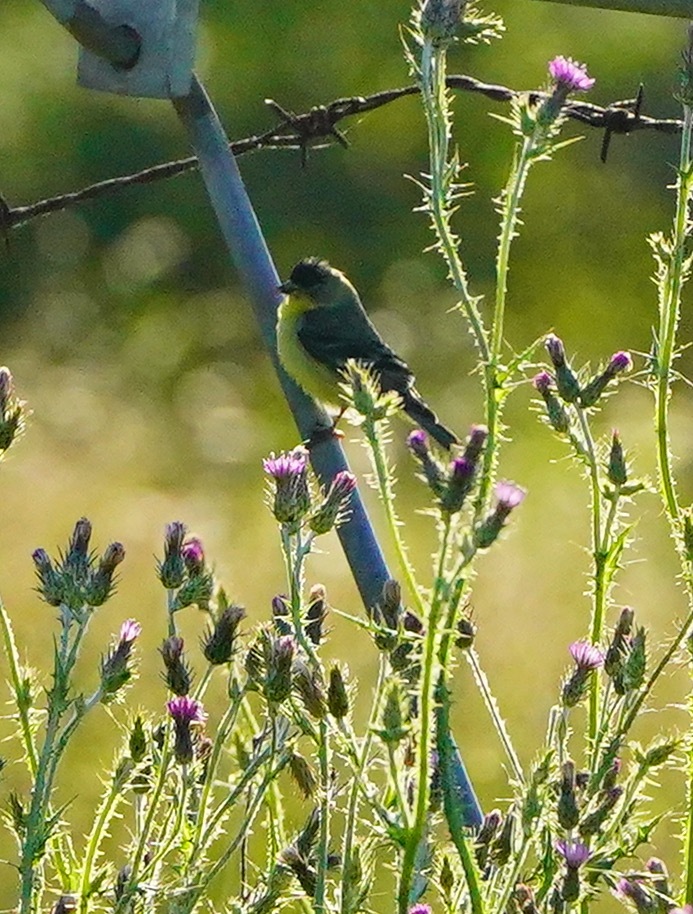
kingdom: Animalia
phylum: Chordata
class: Aves
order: Passeriformes
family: Fringillidae
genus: Spinus
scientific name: Spinus psaltria
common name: Lesser goldfinch
